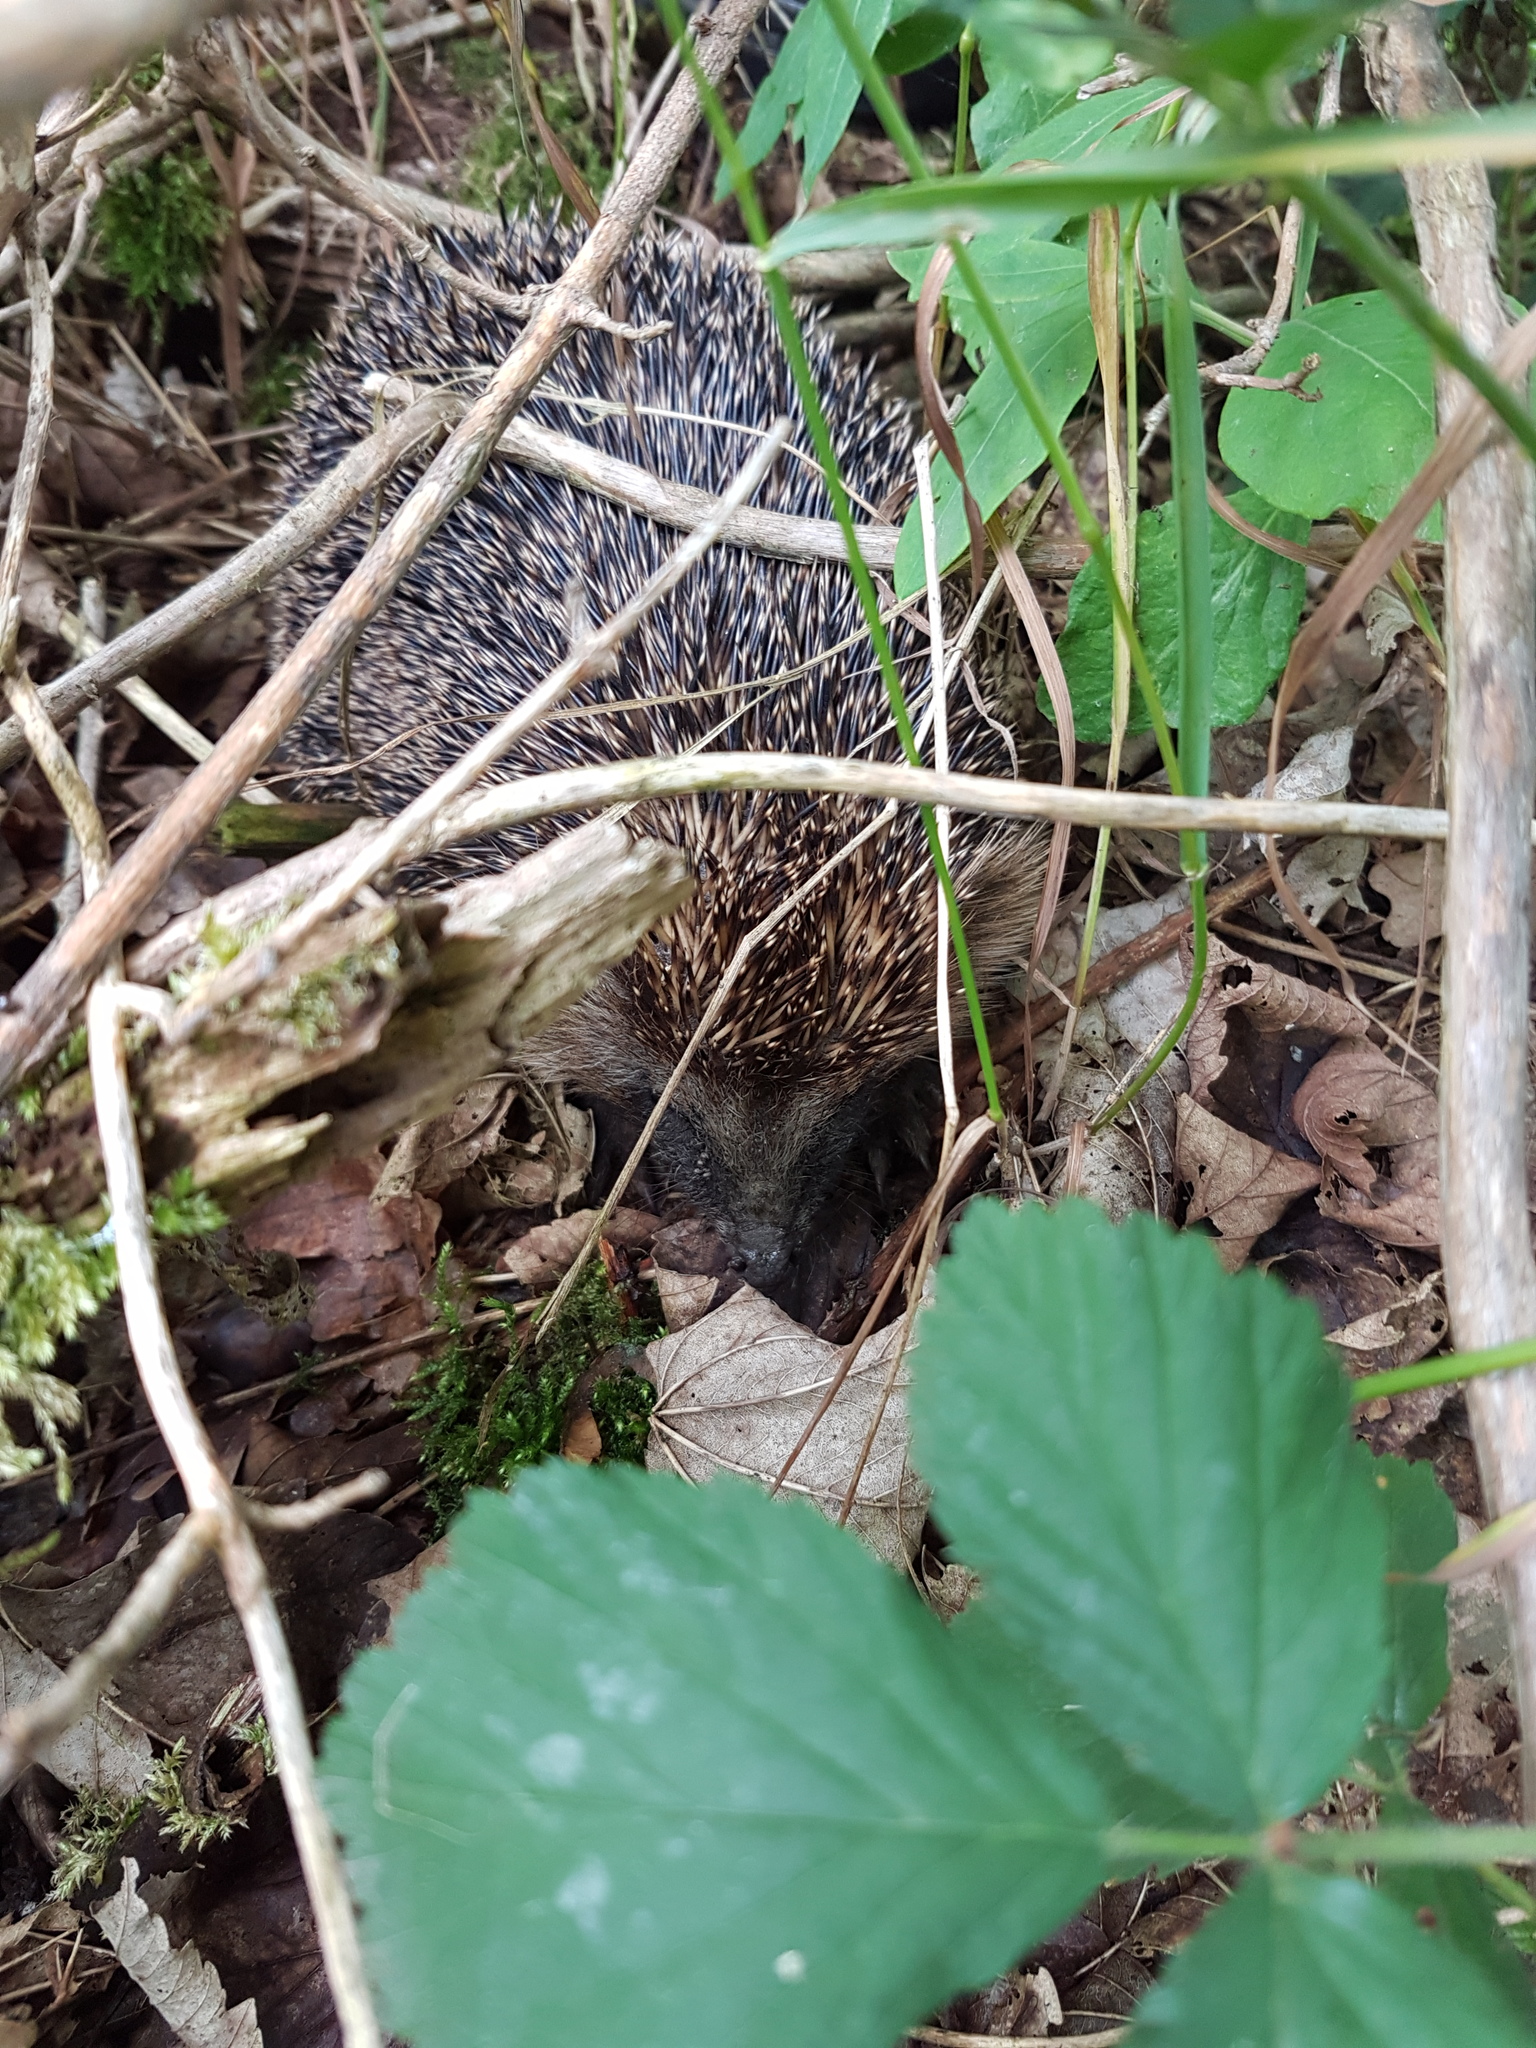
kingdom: Animalia
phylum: Chordata
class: Mammalia
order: Erinaceomorpha
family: Erinaceidae
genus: Erinaceus
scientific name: Erinaceus europaeus
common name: West european hedgehog
